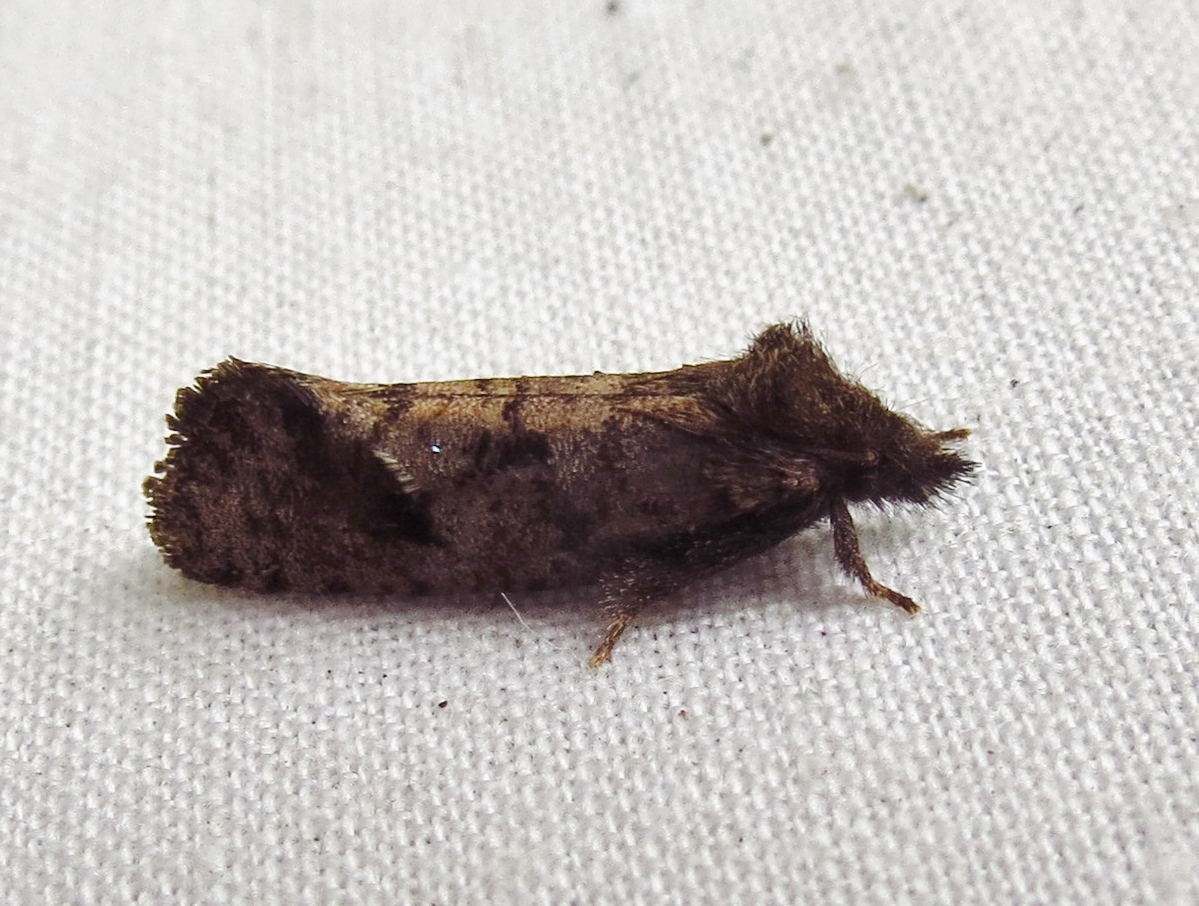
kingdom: Animalia
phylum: Arthropoda
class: Insecta
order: Lepidoptera
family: Tineidae
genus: Acrolophus
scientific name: Acrolophus texanella
